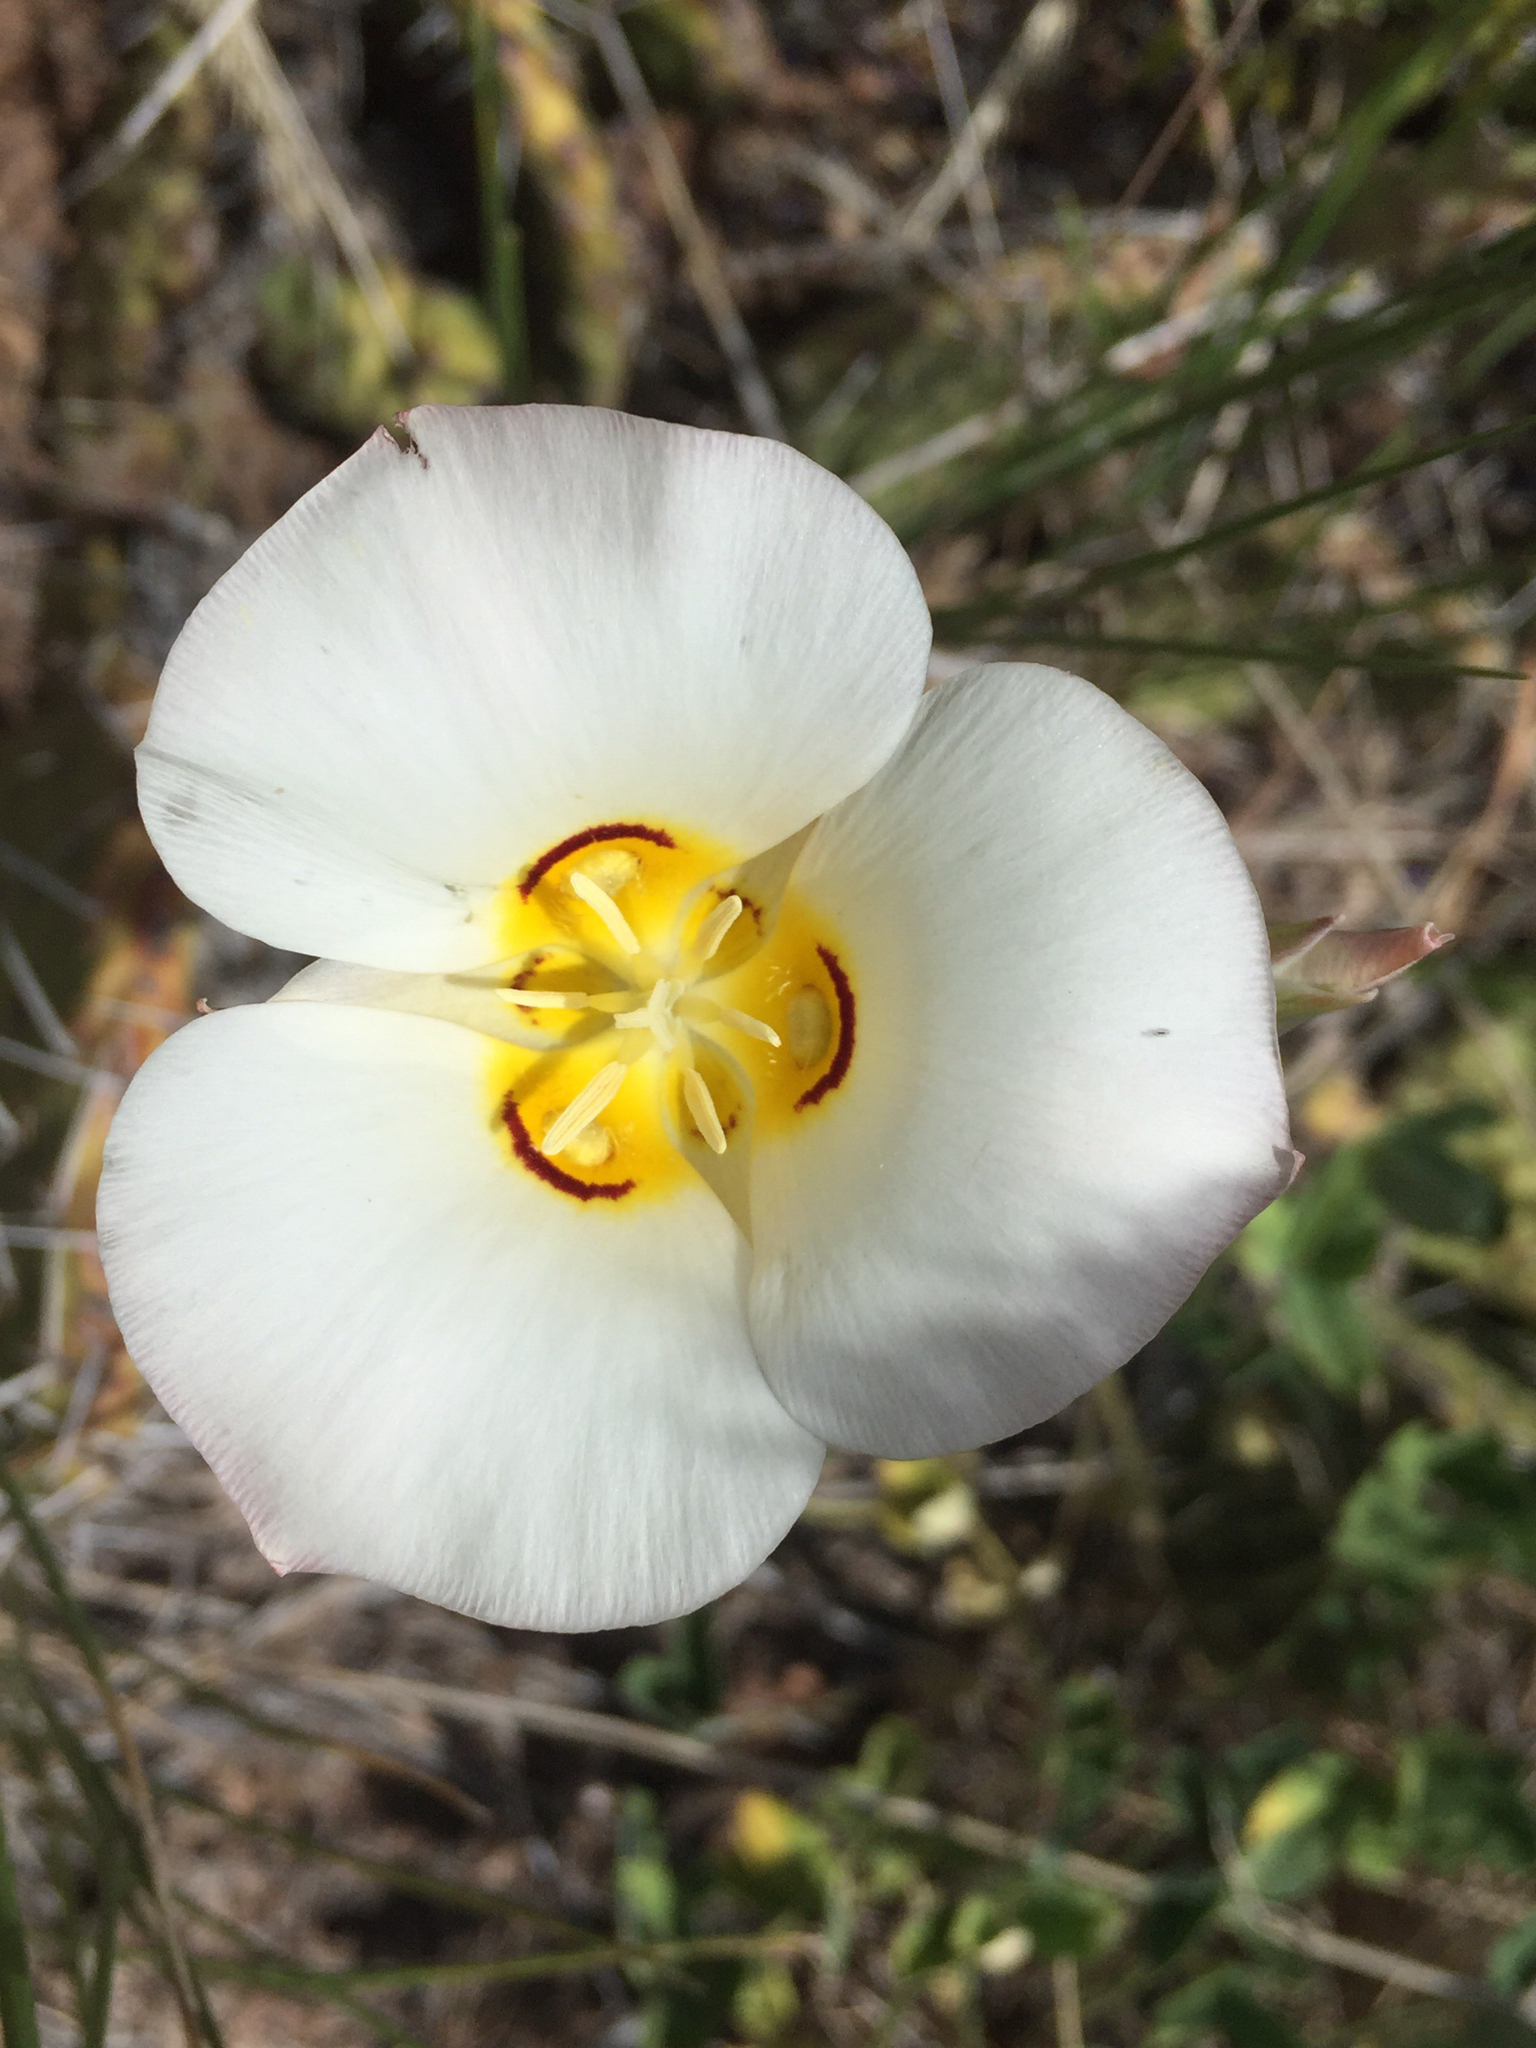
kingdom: Plantae
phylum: Tracheophyta
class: Liliopsida
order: Liliales
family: Liliaceae
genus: Calochortus
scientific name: Calochortus nuttallii
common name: Sego-lily
